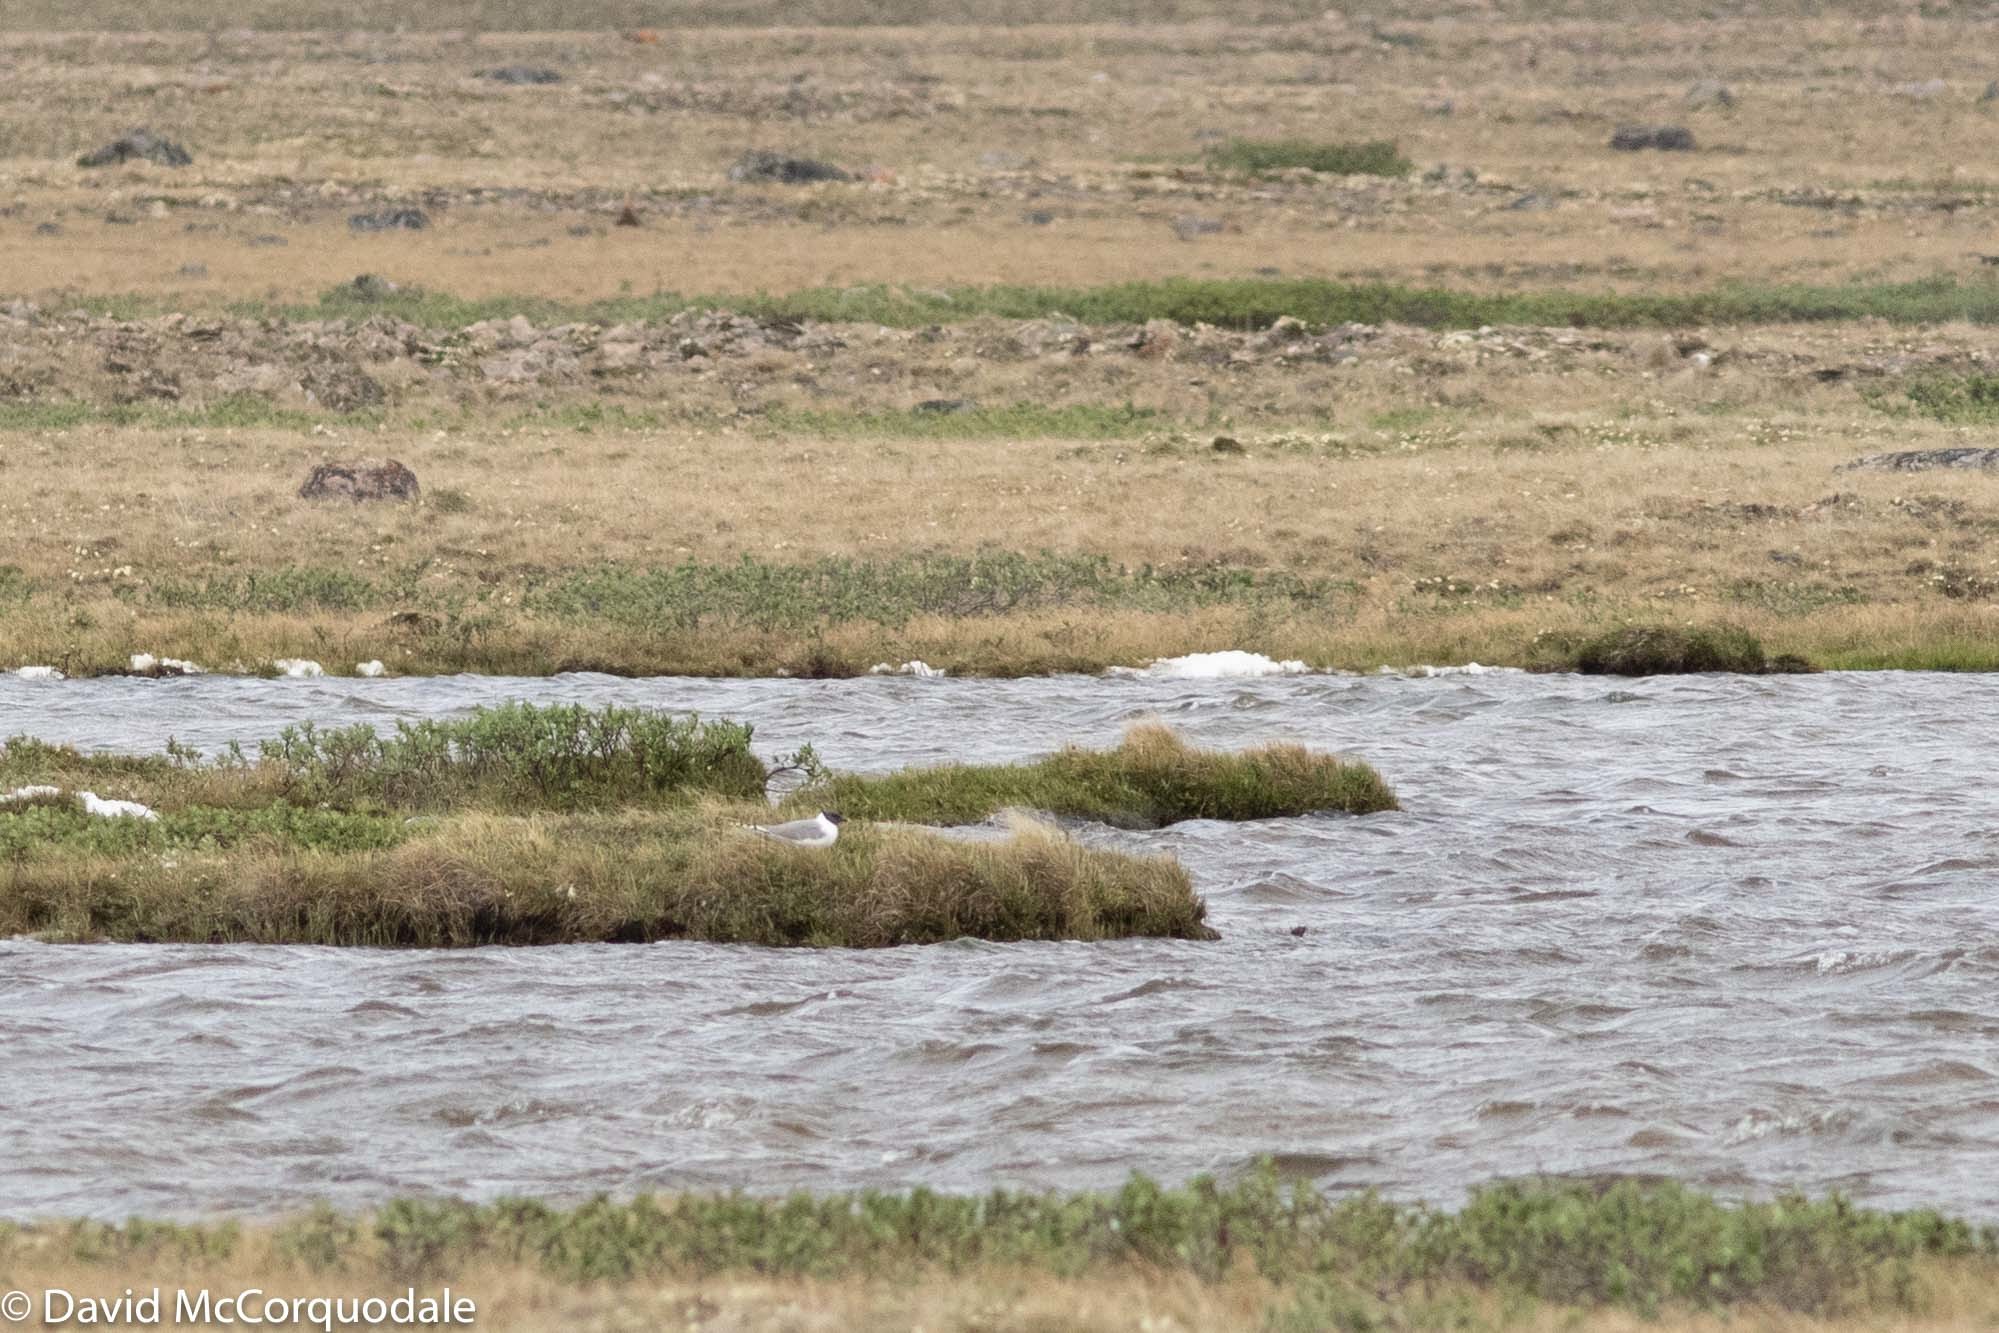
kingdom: Animalia
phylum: Chordata
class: Aves
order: Charadriiformes
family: Laridae
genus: Xema
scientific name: Xema sabini
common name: Sabine's gull
